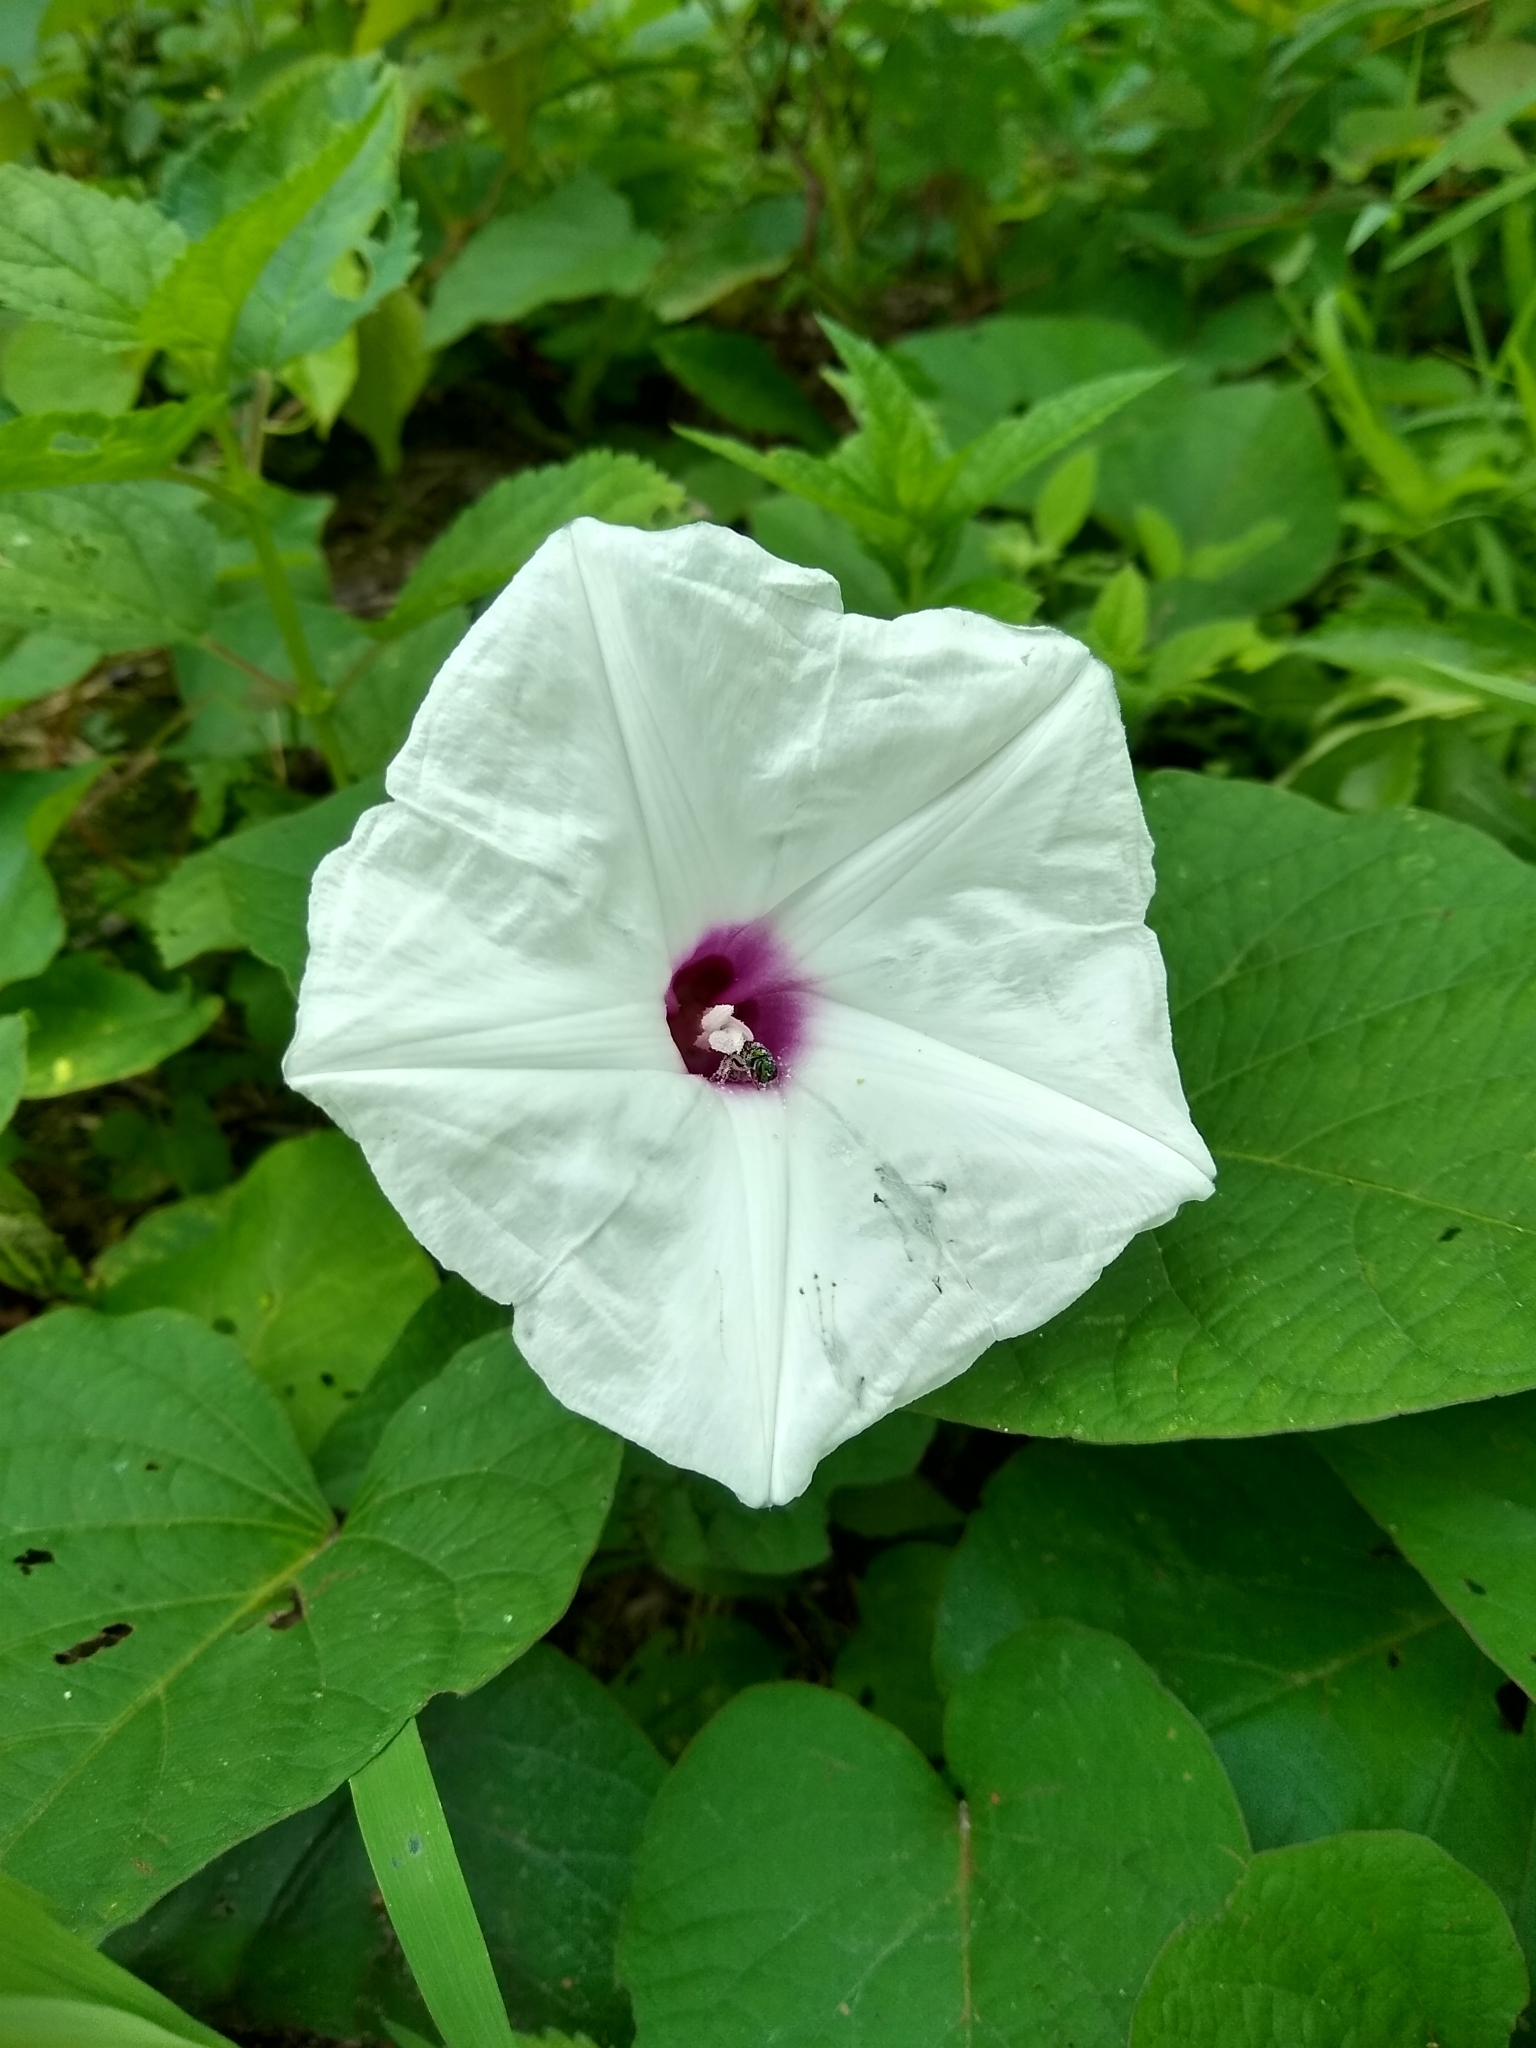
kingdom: Plantae
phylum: Tracheophyta
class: Magnoliopsida
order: Solanales
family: Convolvulaceae
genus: Ipomoea
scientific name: Ipomoea pandurata
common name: Man-of-the-earth
